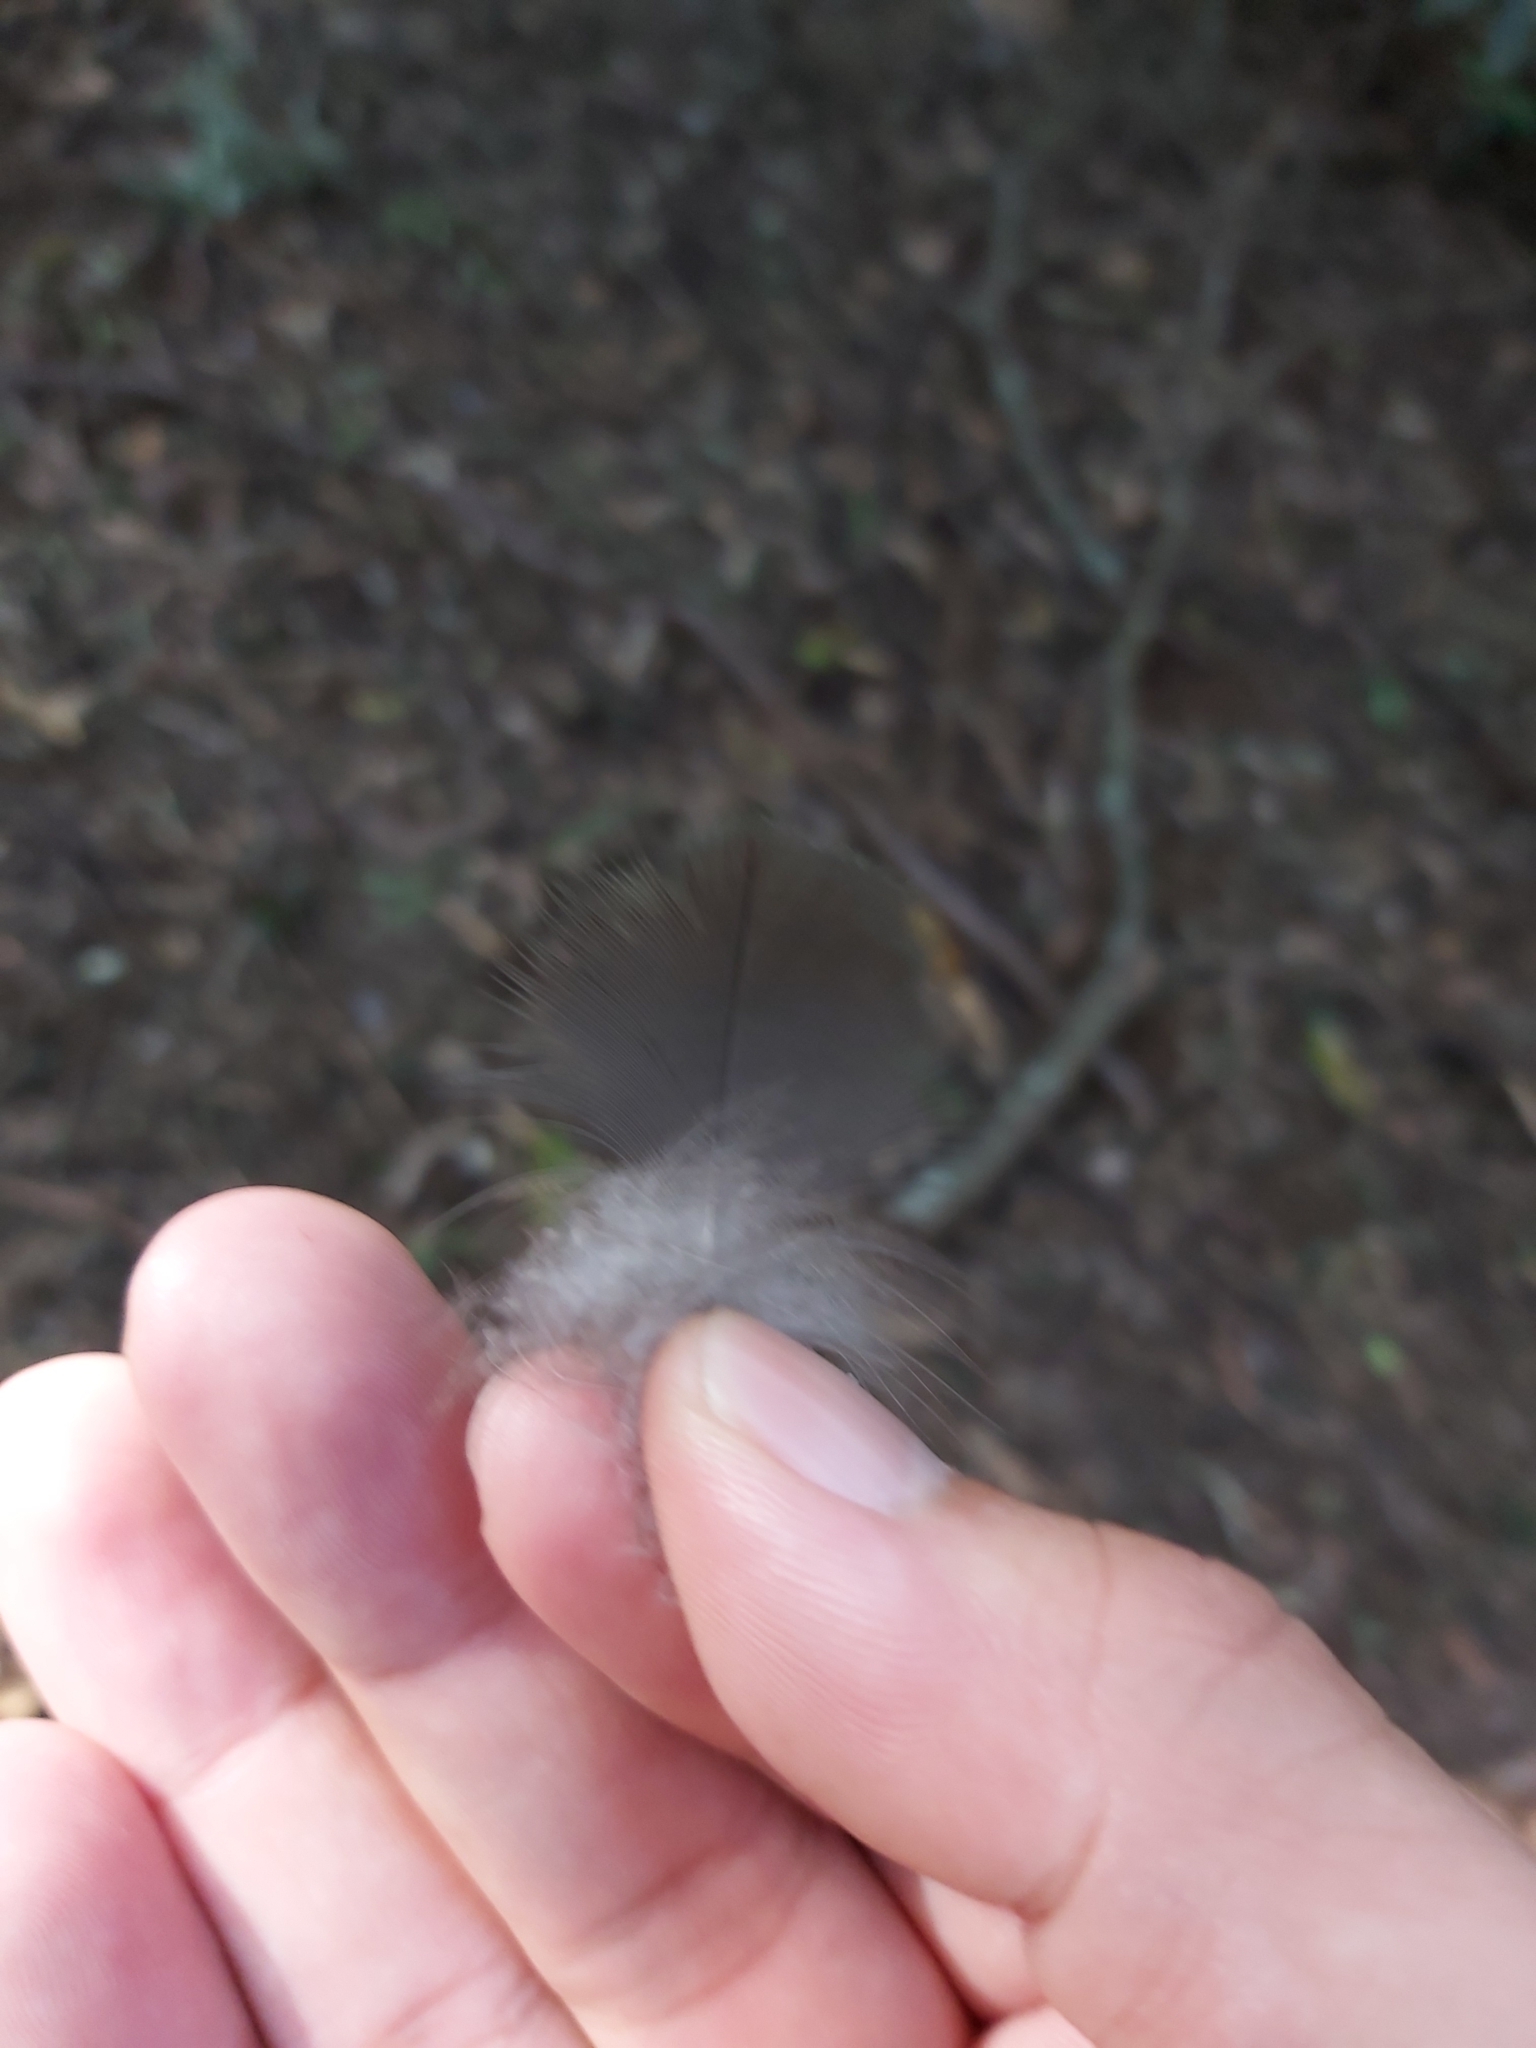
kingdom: Animalia
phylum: Chordata
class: Aves
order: Psittaciformes
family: Psittacidae
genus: Alisterus
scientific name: Alisterus scapularis
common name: Australian king parrot
